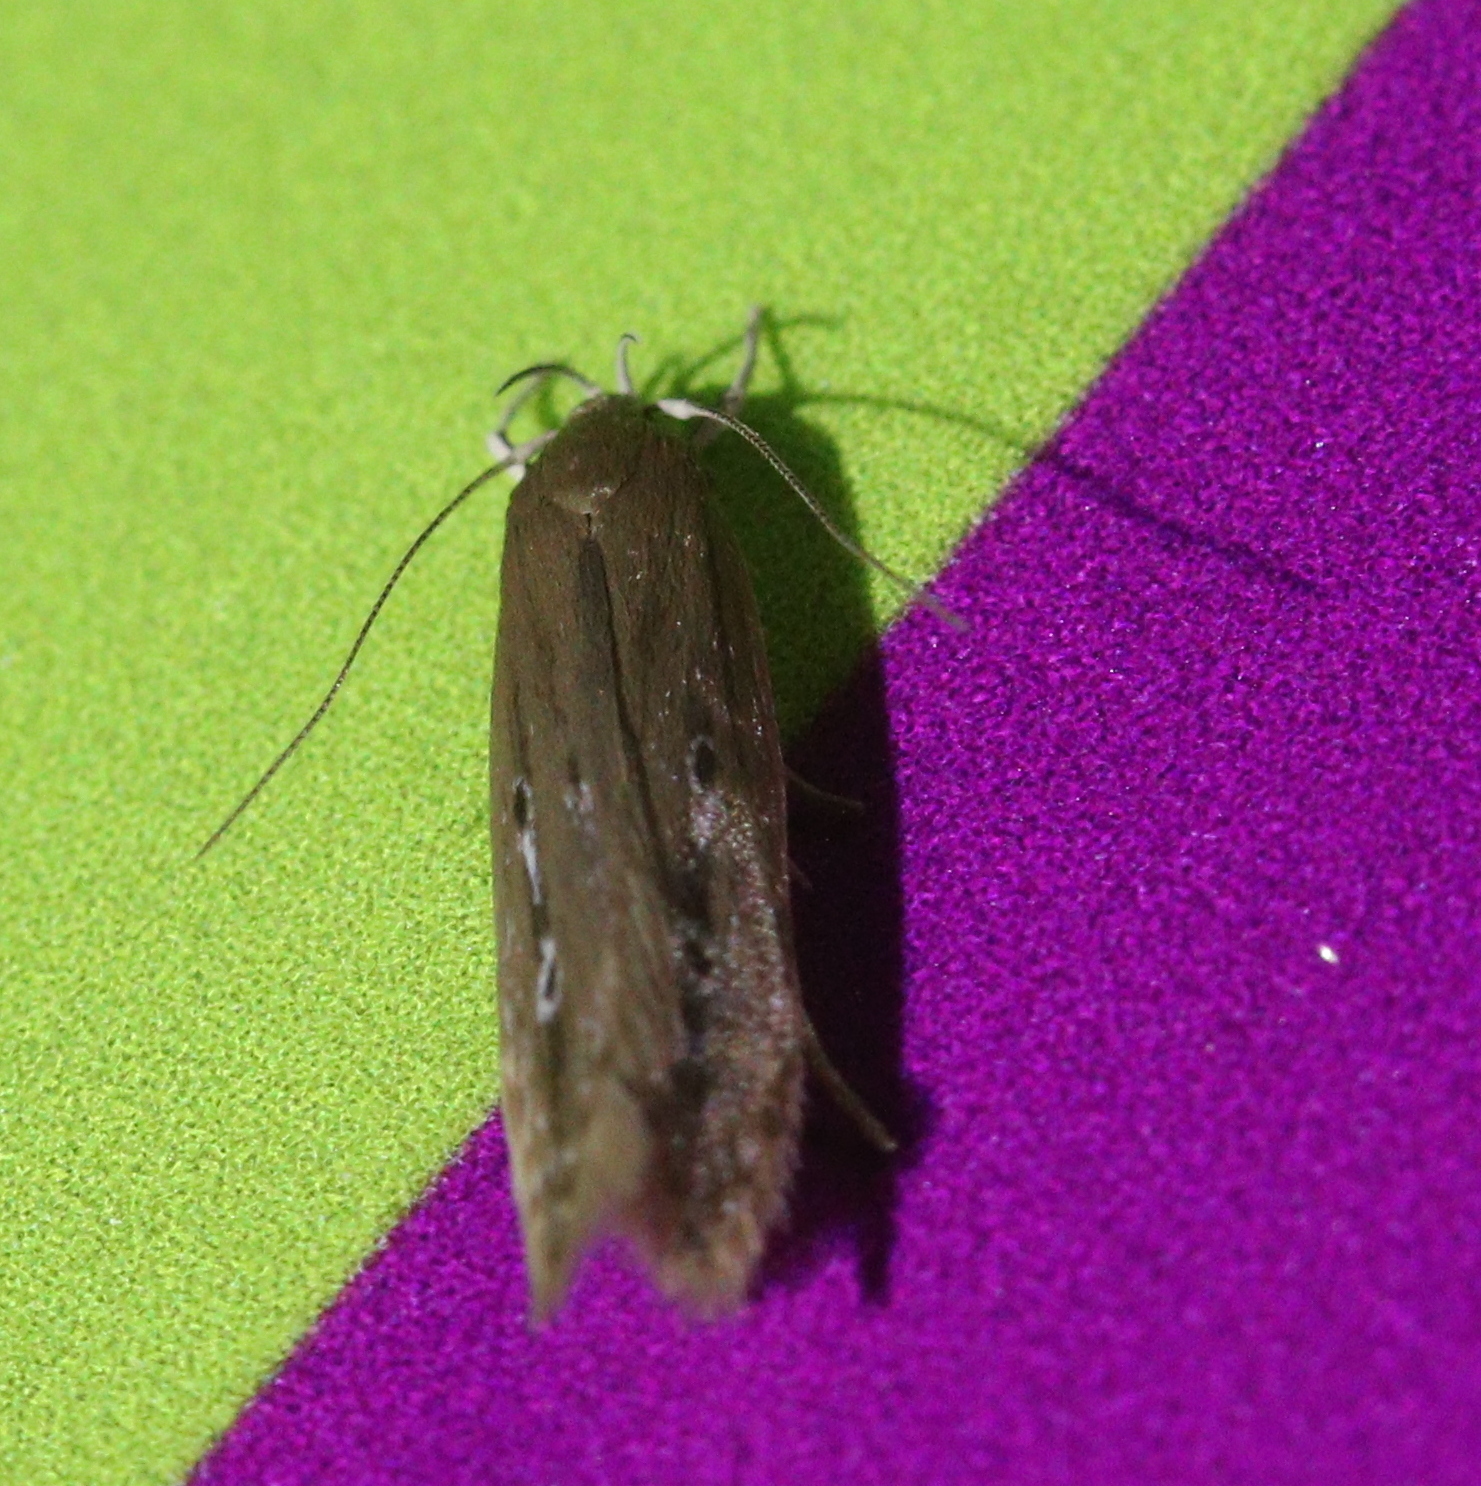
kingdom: Animalia
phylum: Arthropoda
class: Insecta
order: Lepidoptera
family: Cosmopterigidae
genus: Limnaecia
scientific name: Limnaecia phragmitella
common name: Bulrush cosmet
